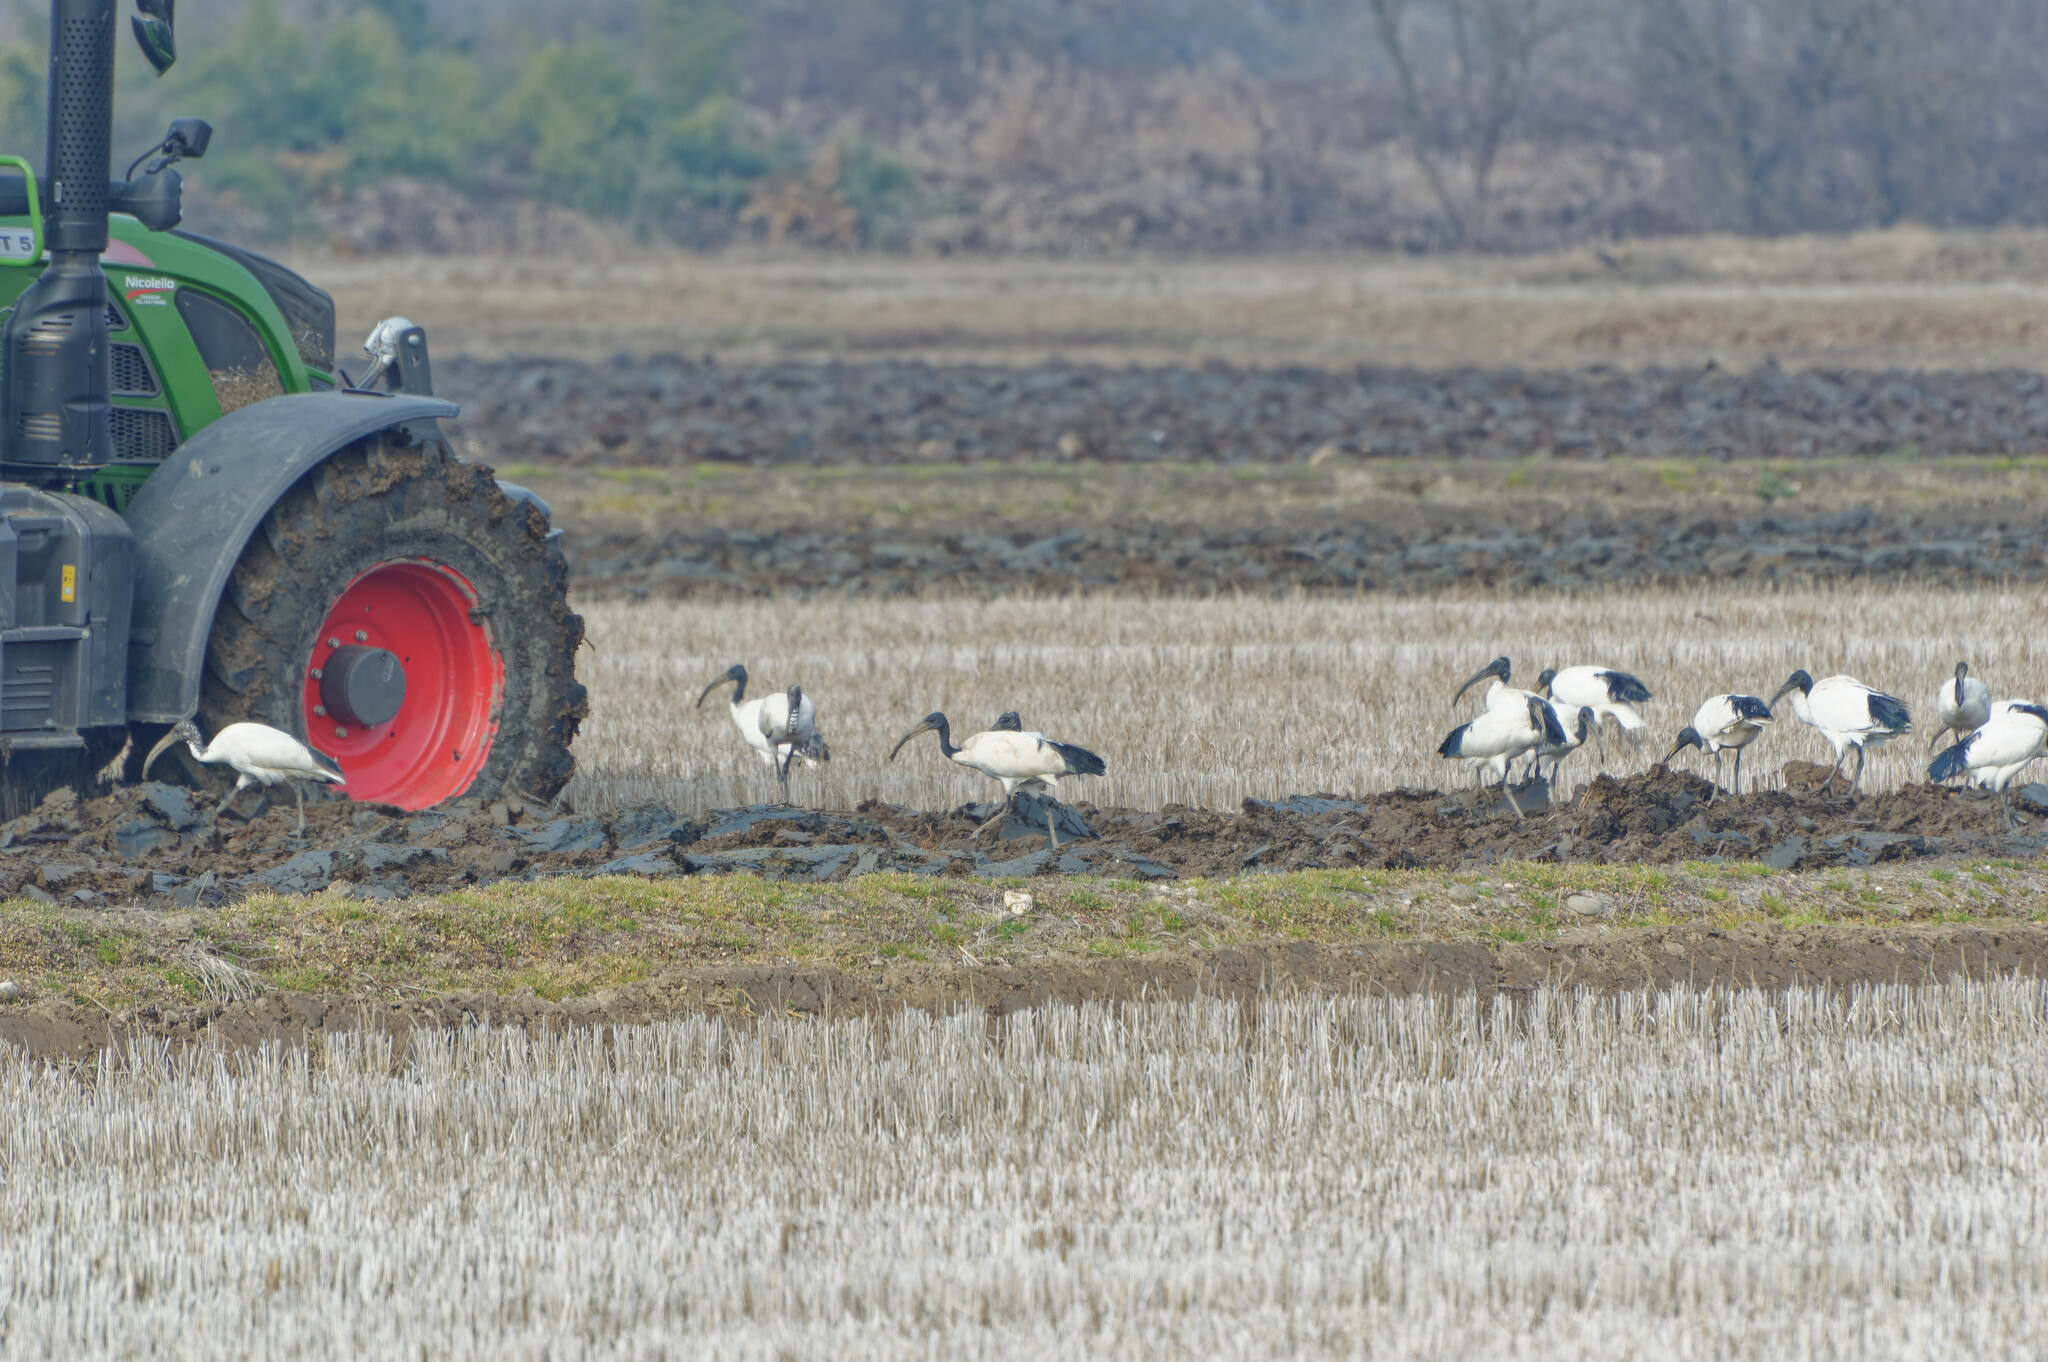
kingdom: Animalia
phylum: Chordata
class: Aves
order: Pelecaniformes
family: Threskiornithidae
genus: Threskiornis
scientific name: Threskiornis aethiopicus
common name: Sacred ibis
